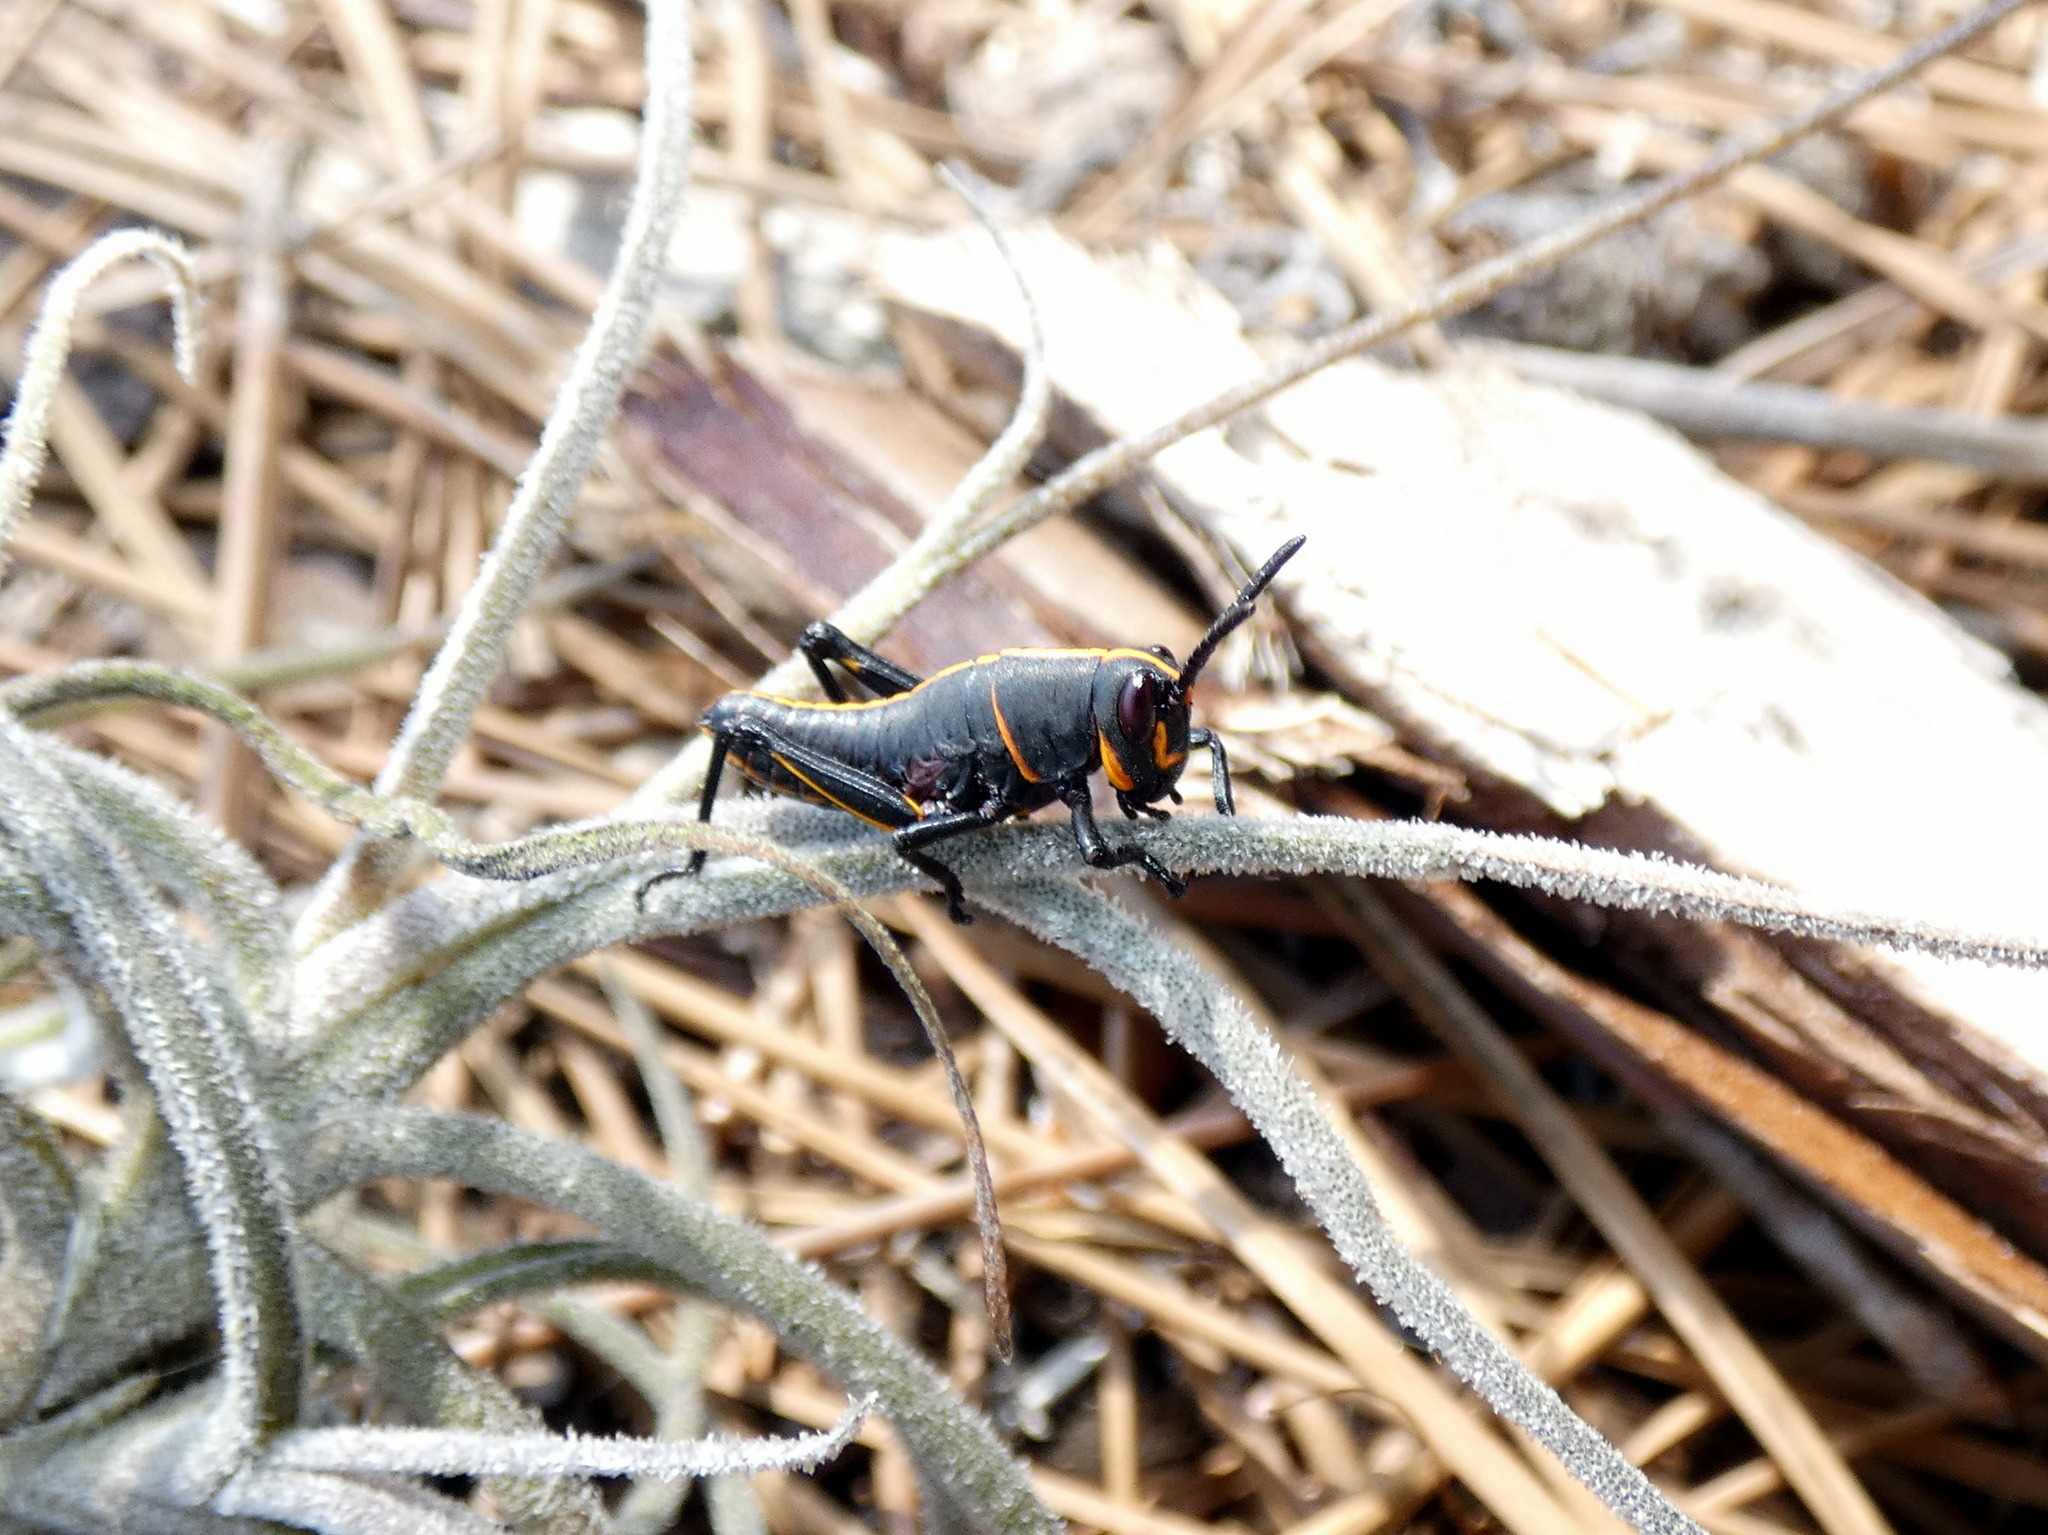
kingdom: Animalia
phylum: Arthropoda
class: Insecta
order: Orthoptera
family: Romaleidae
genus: Romalea
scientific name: Romalea microptera
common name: Eastern lubber grasshopper
